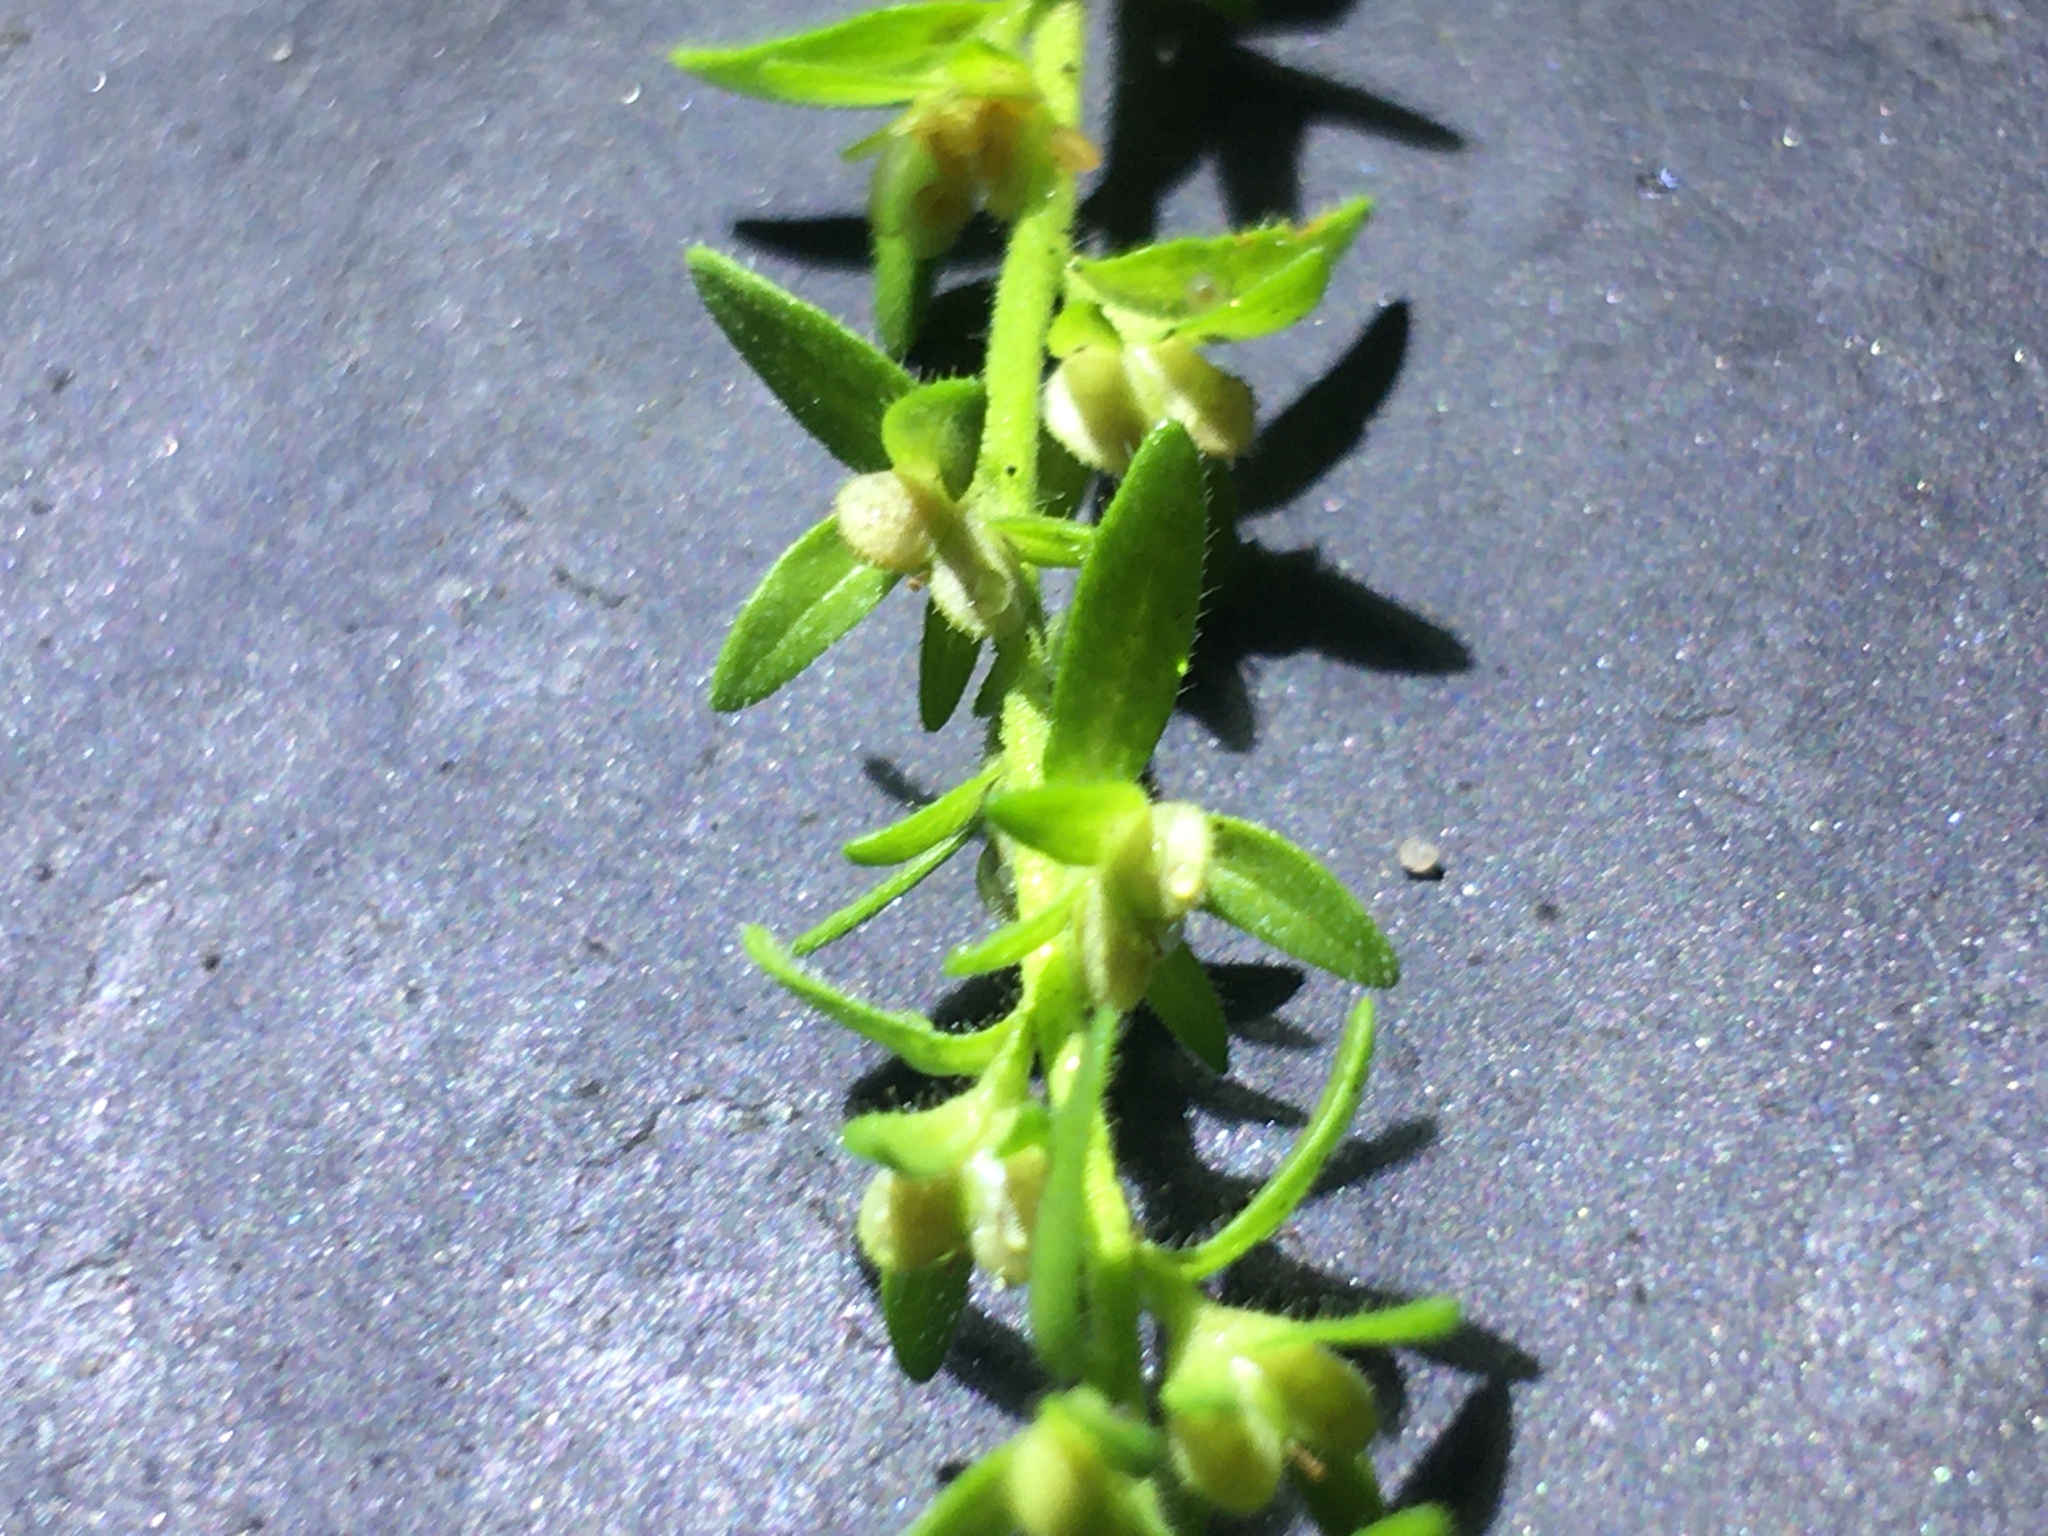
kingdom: Plantae
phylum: Tracheophyta
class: Magnoliopsida
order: Lamiales
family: Plantaginaceae
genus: Veronica
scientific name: Veronica arvensis
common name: Corn speedwell
